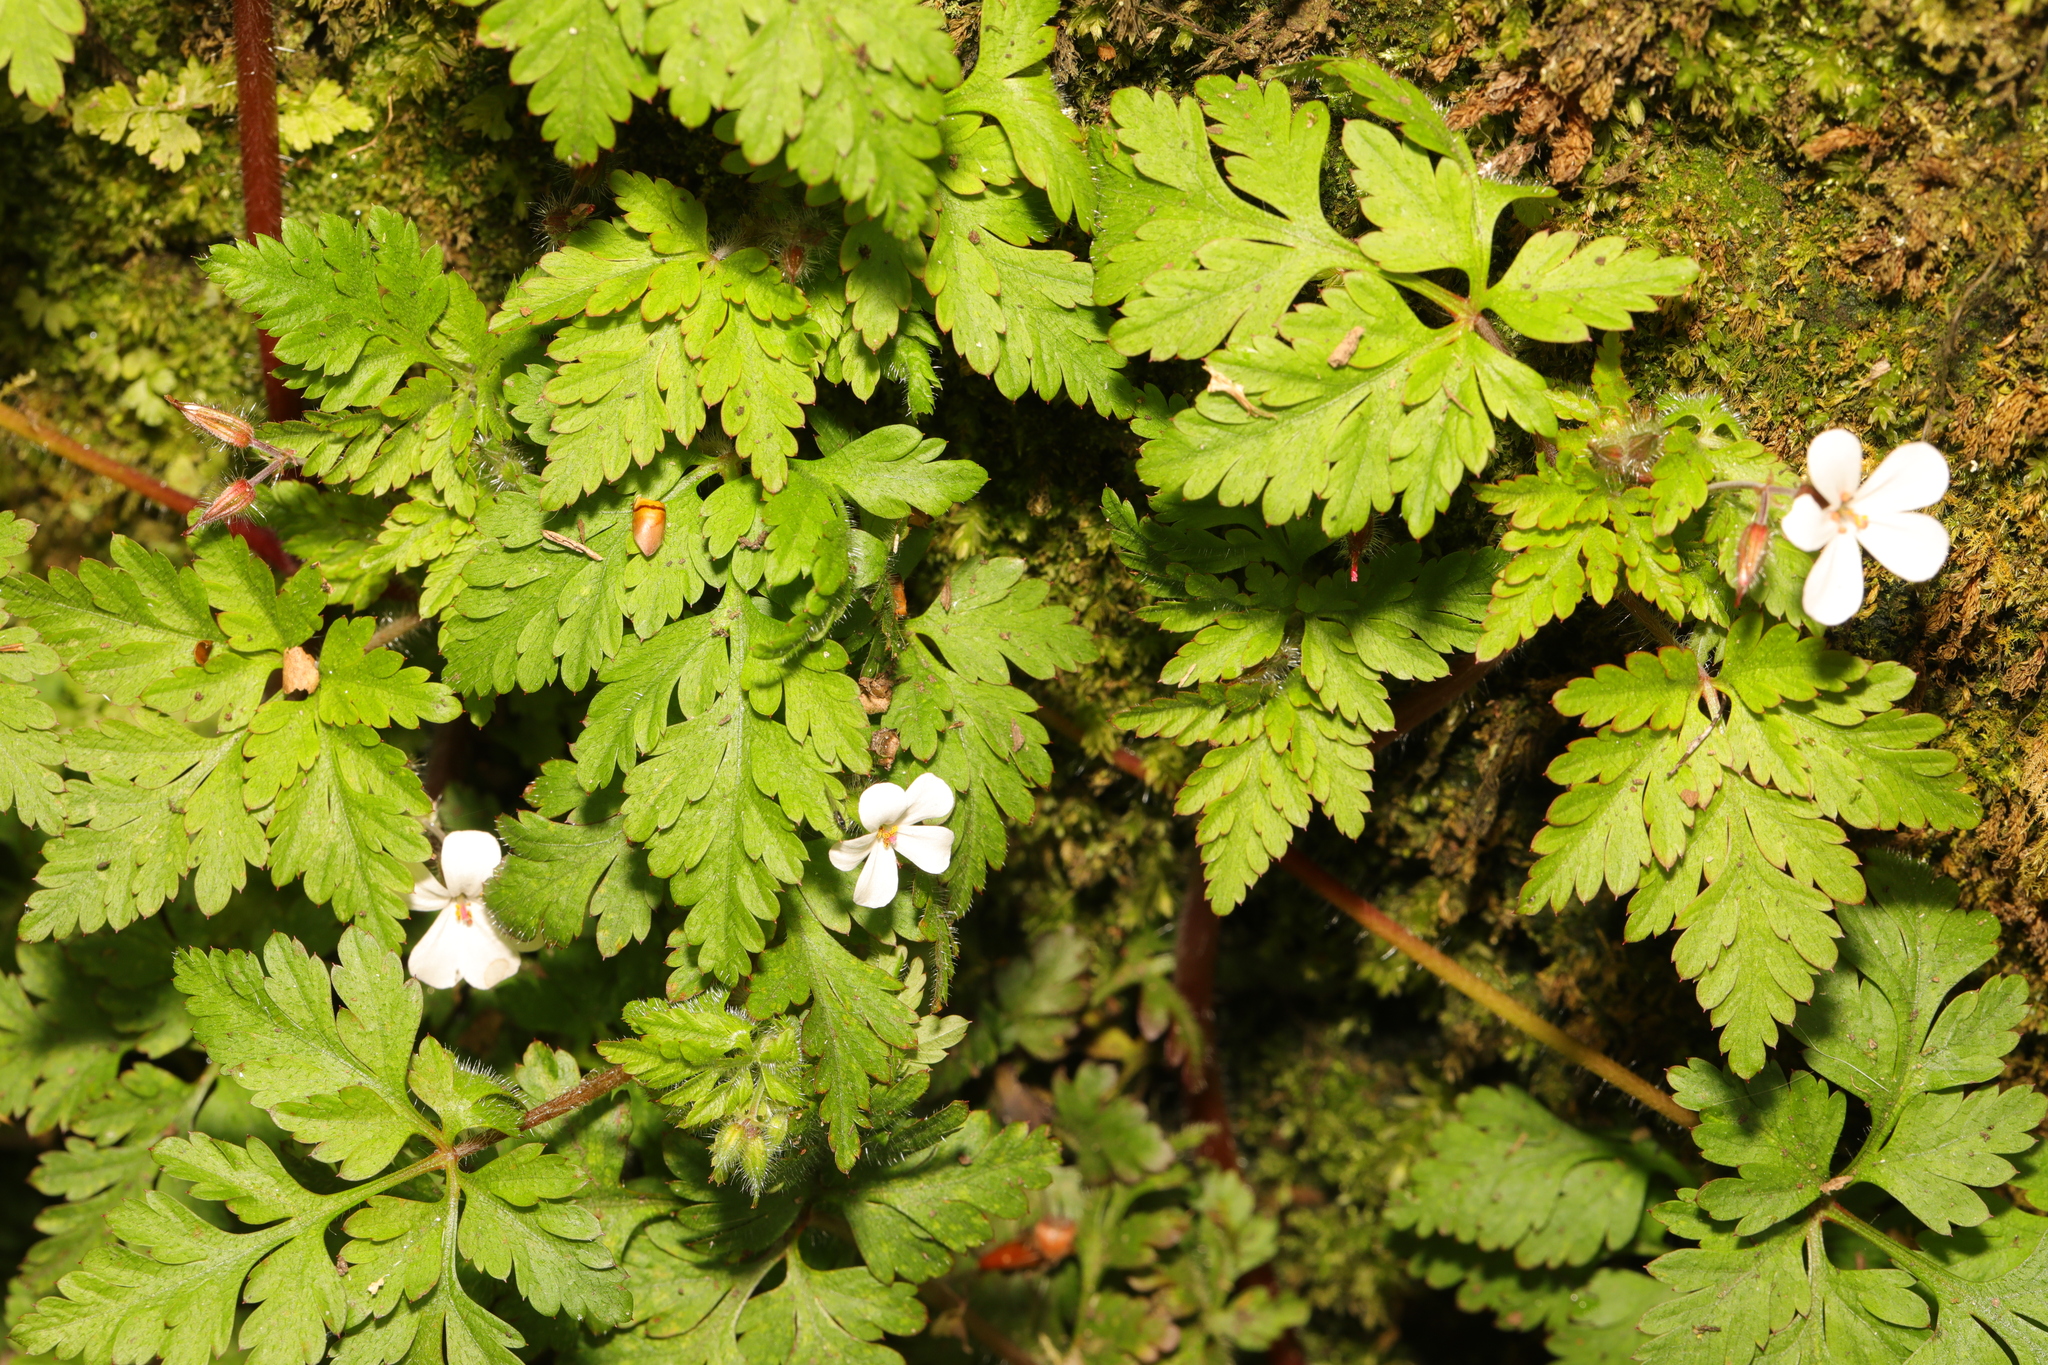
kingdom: Plantae
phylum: Tracheophyta
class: Magnoliopsida
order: Geraniales
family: Geraniaceae
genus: Geranium
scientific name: Geranium robertianum
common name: Herb-robert
